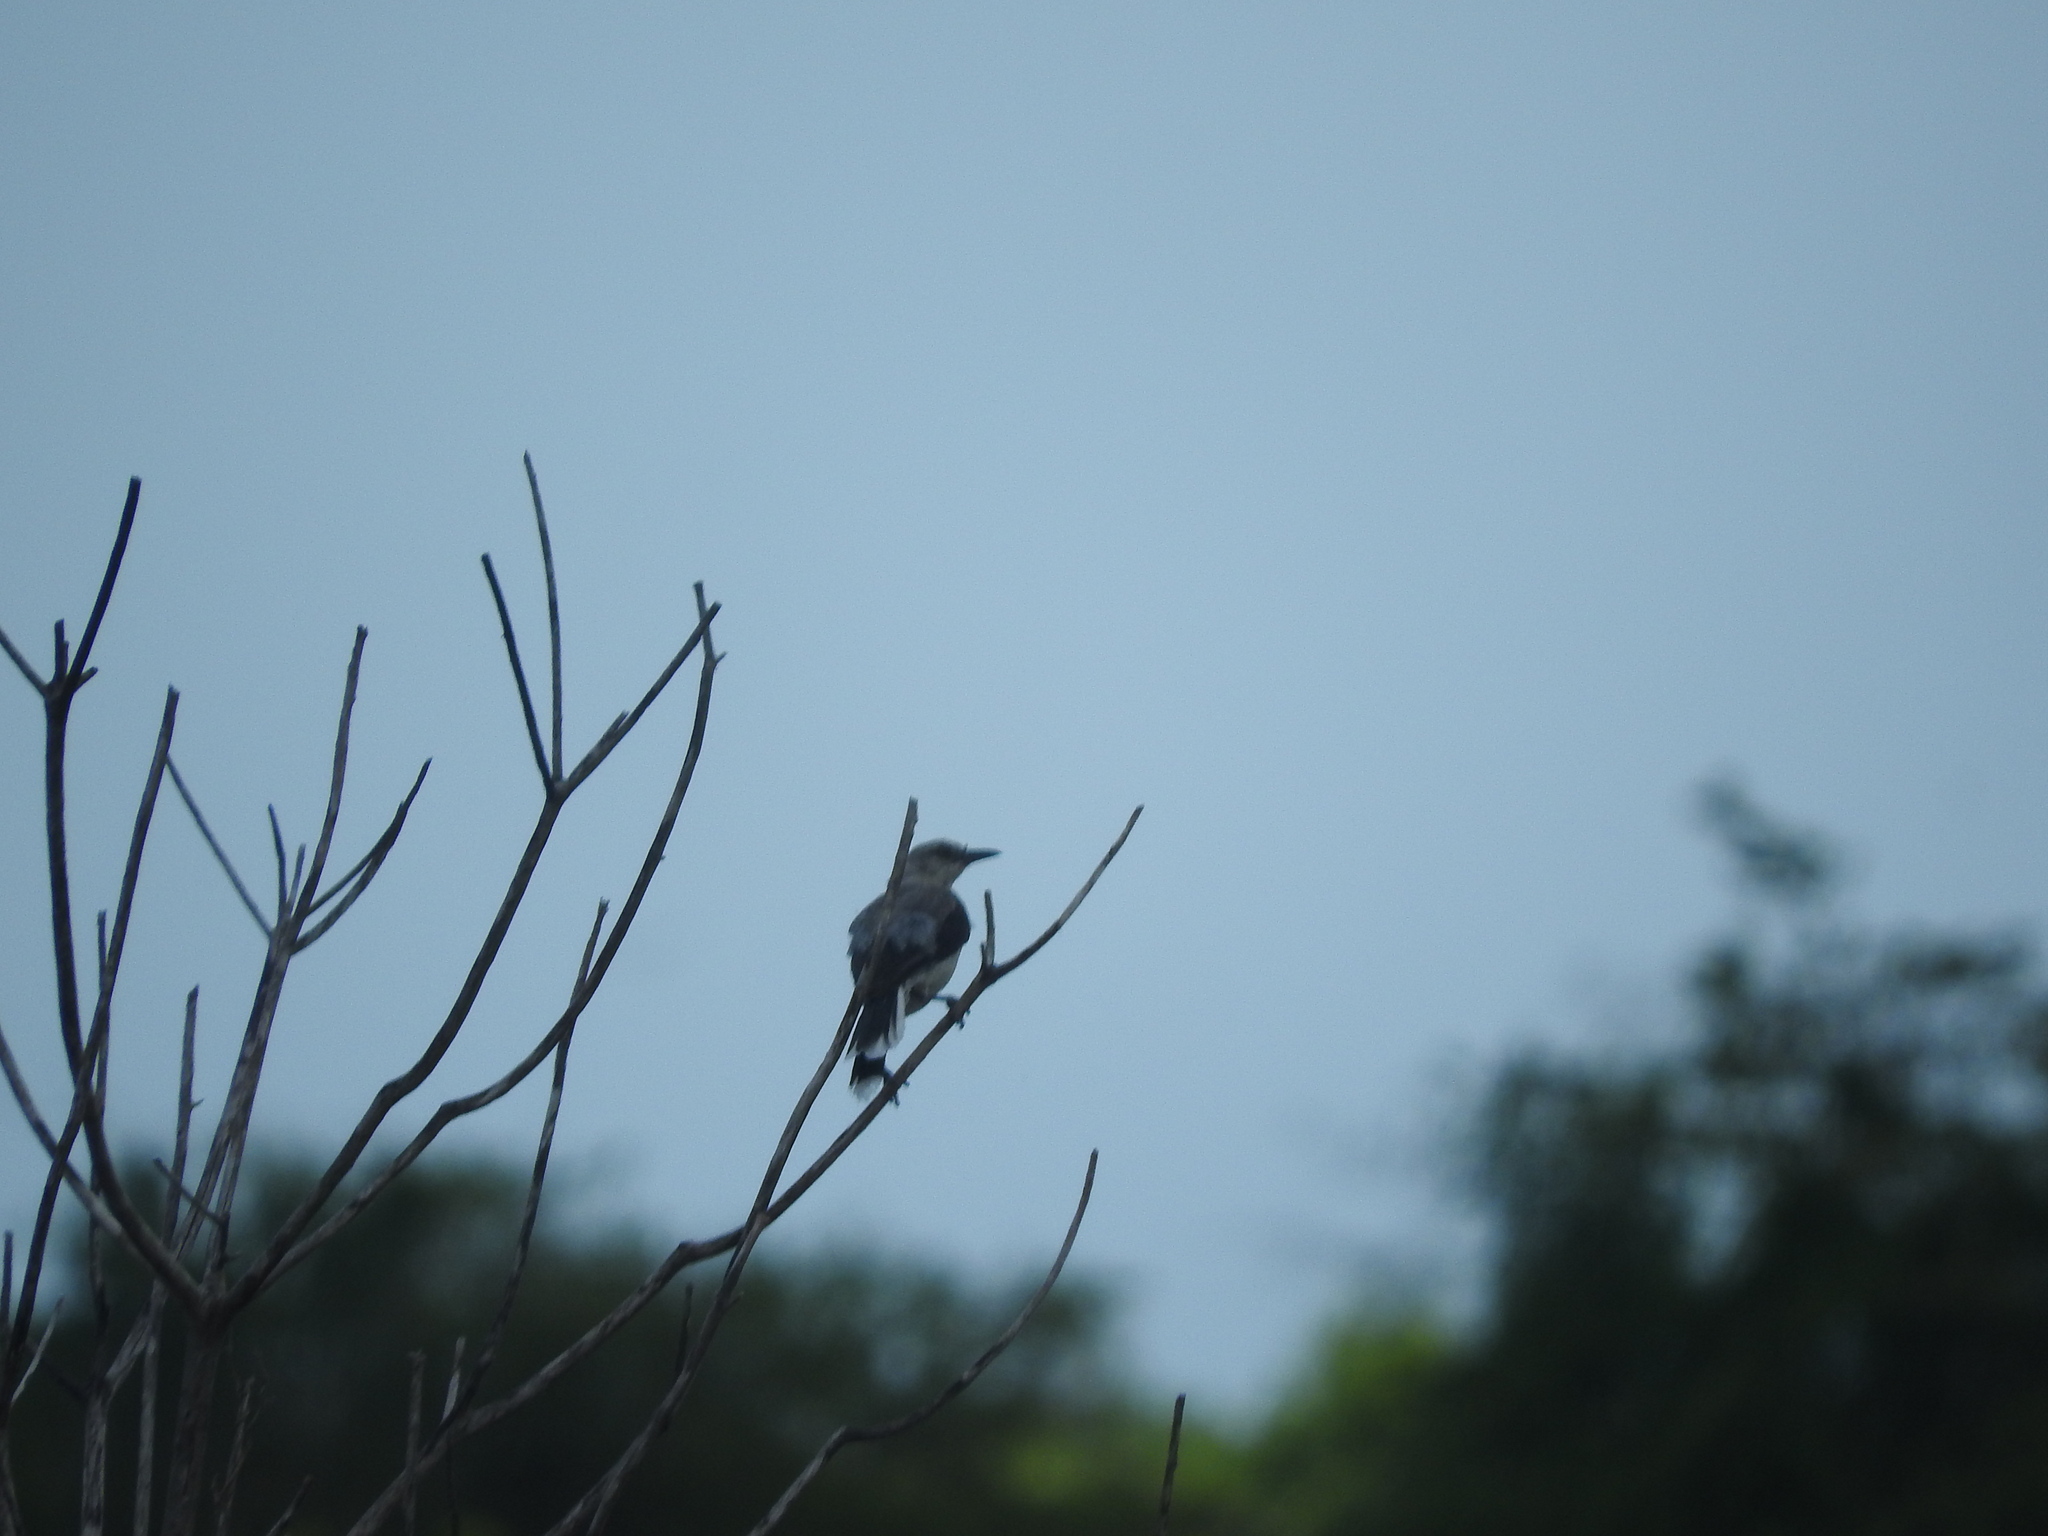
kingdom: Animalia
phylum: Chordata
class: Aves
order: Passeriformes
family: Mimidae
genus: Mimus
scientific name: Mimus gilvus
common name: Tropical mockingbird
